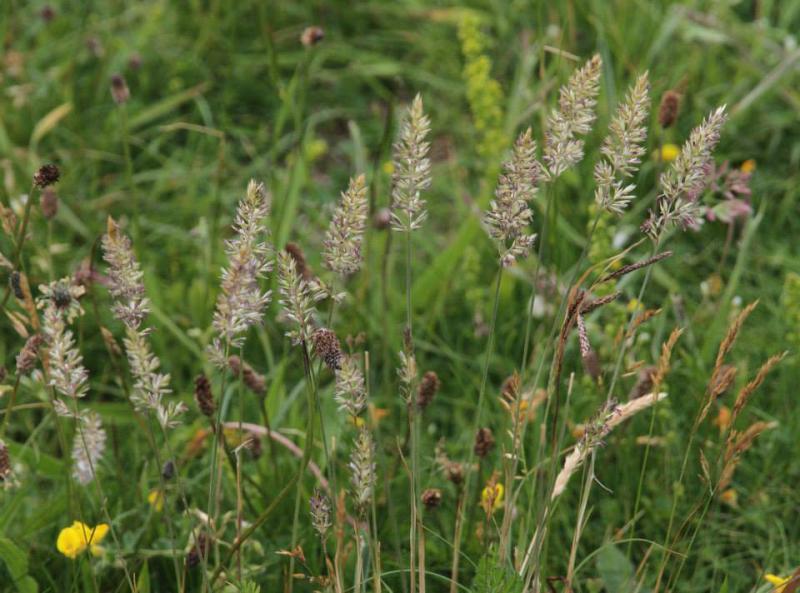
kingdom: Plantae
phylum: Tracheophyta
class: Liliopsida
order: Poales
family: Poaceae
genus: Koeleria
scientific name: Koeleria macrantha
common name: Crested hair-grass
